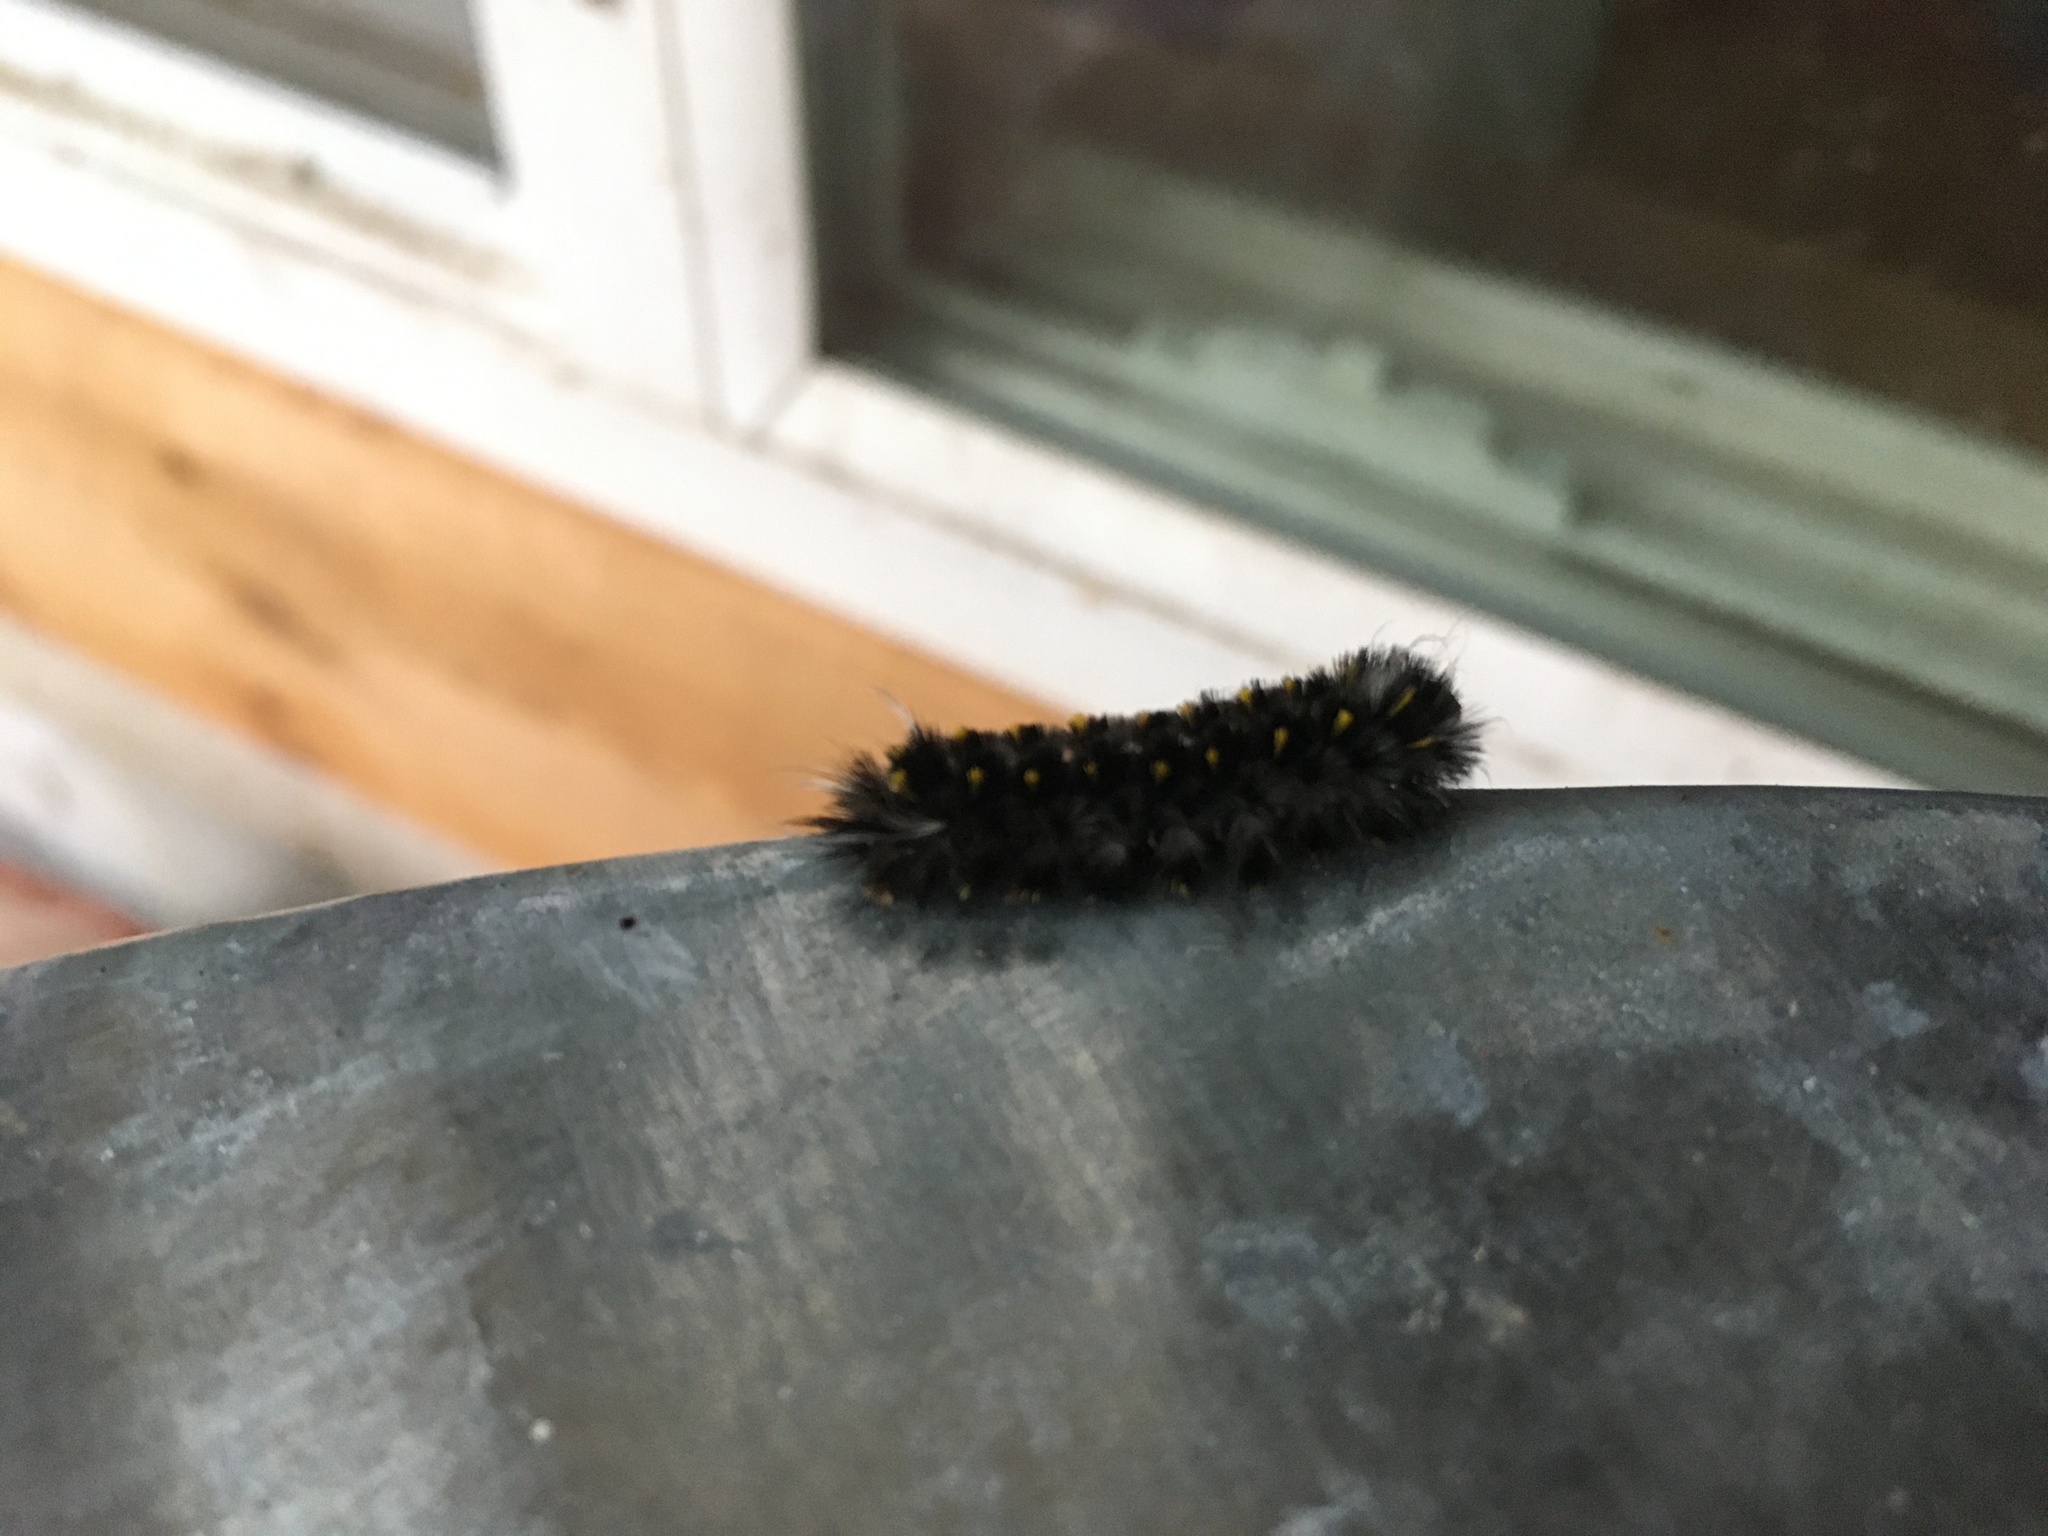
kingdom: Animalia
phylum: Arthropoda
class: Insecta
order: Lepidoptera
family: Erebidae
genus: Lophocampa
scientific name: Lophocampa roseata
